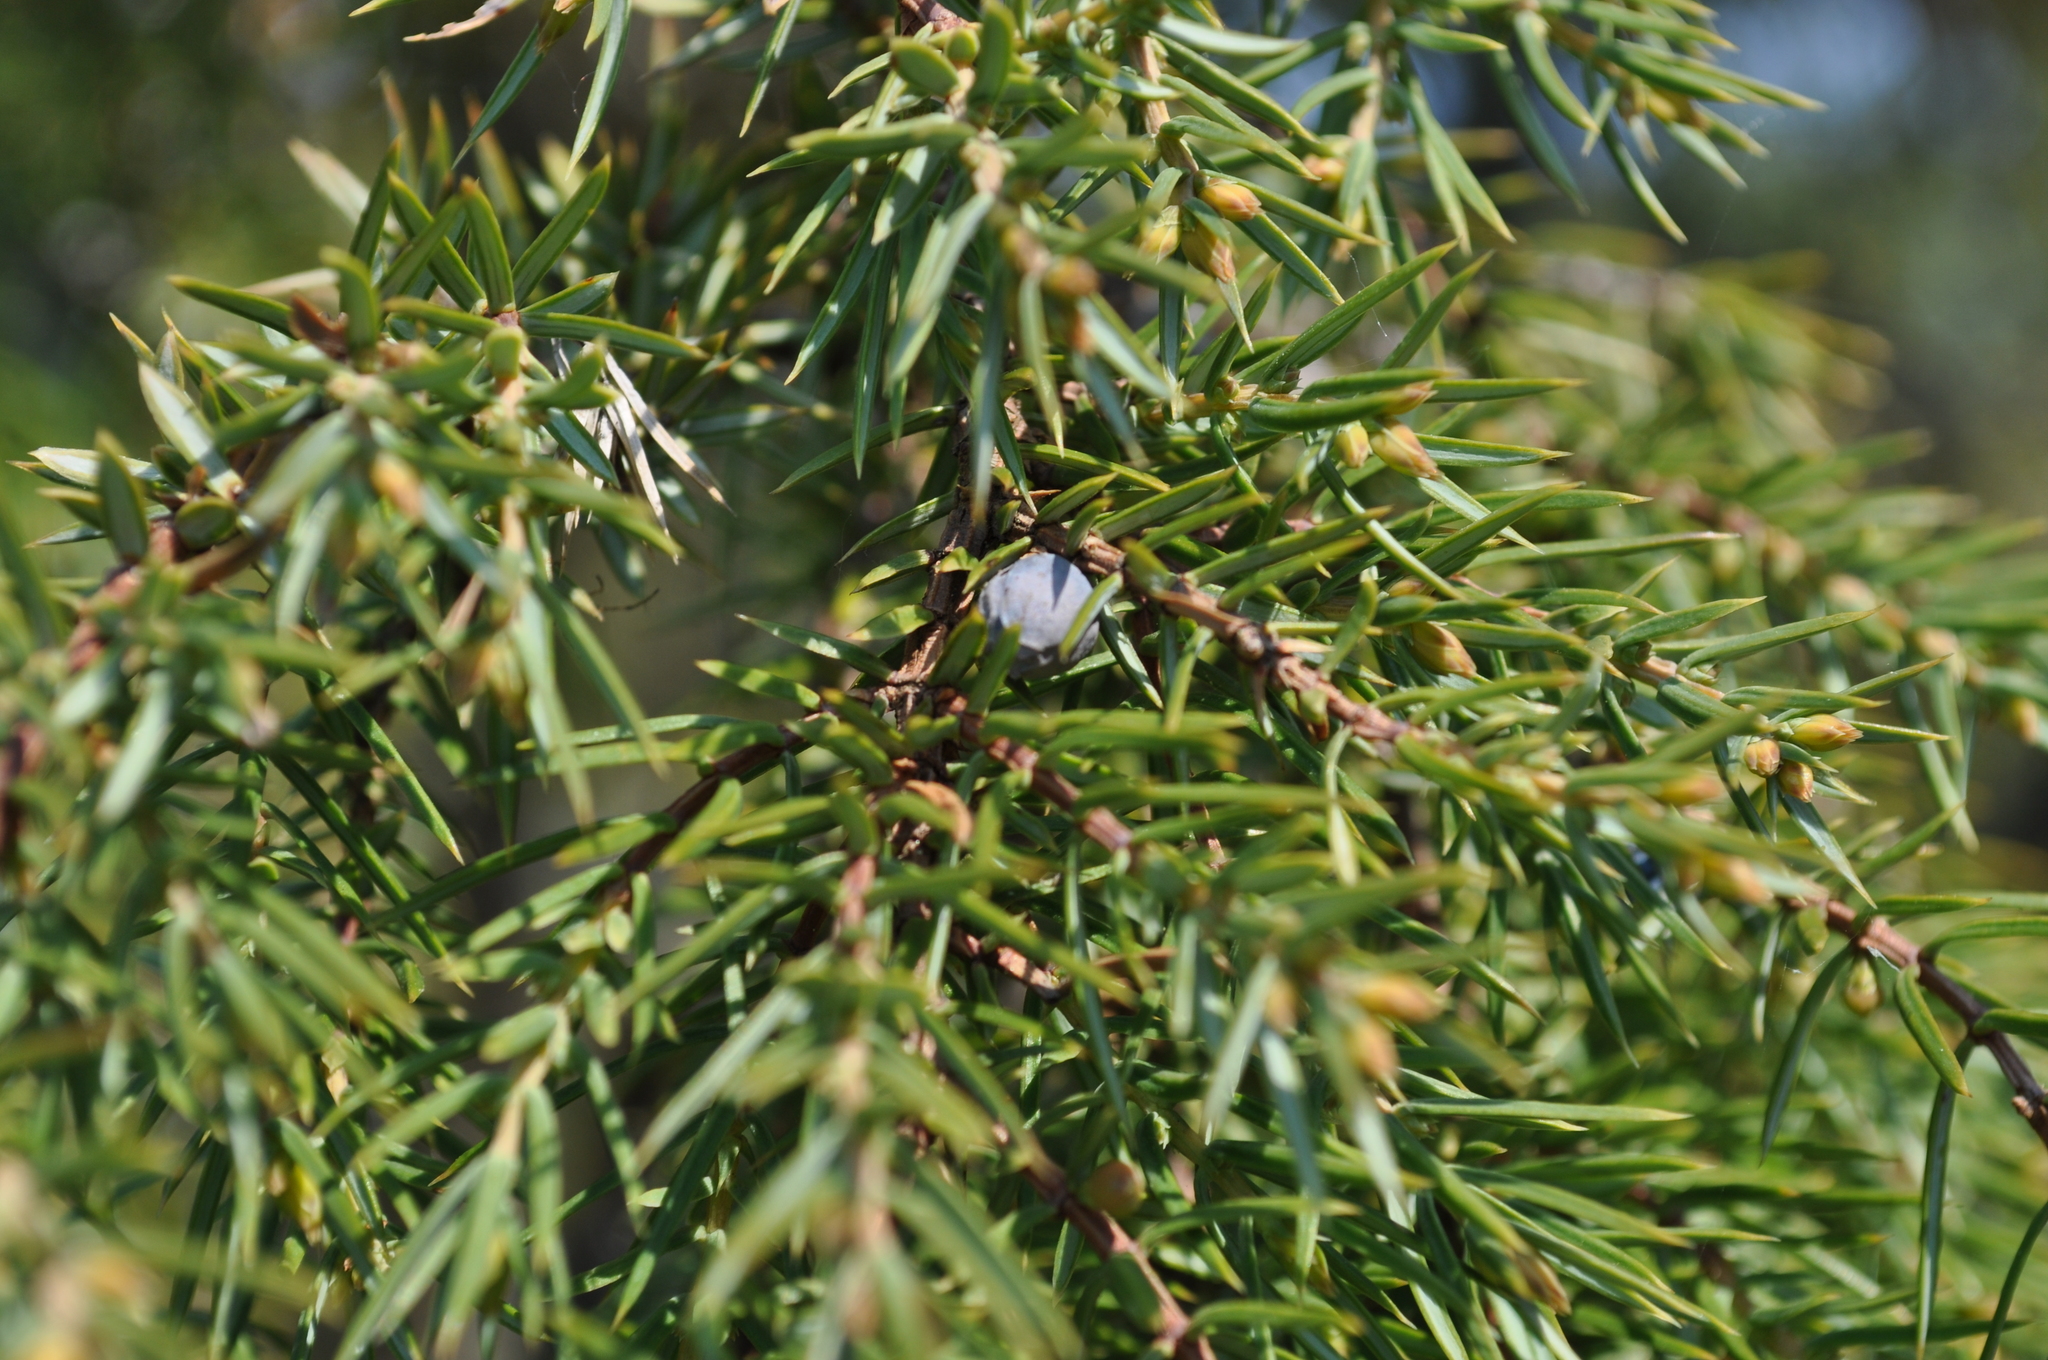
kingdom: Plantae
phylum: Tracheophyta
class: Pinopsida
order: Pinales
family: Cupressaceae
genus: Juniperus
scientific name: Juniperus communis
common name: Common juniper
